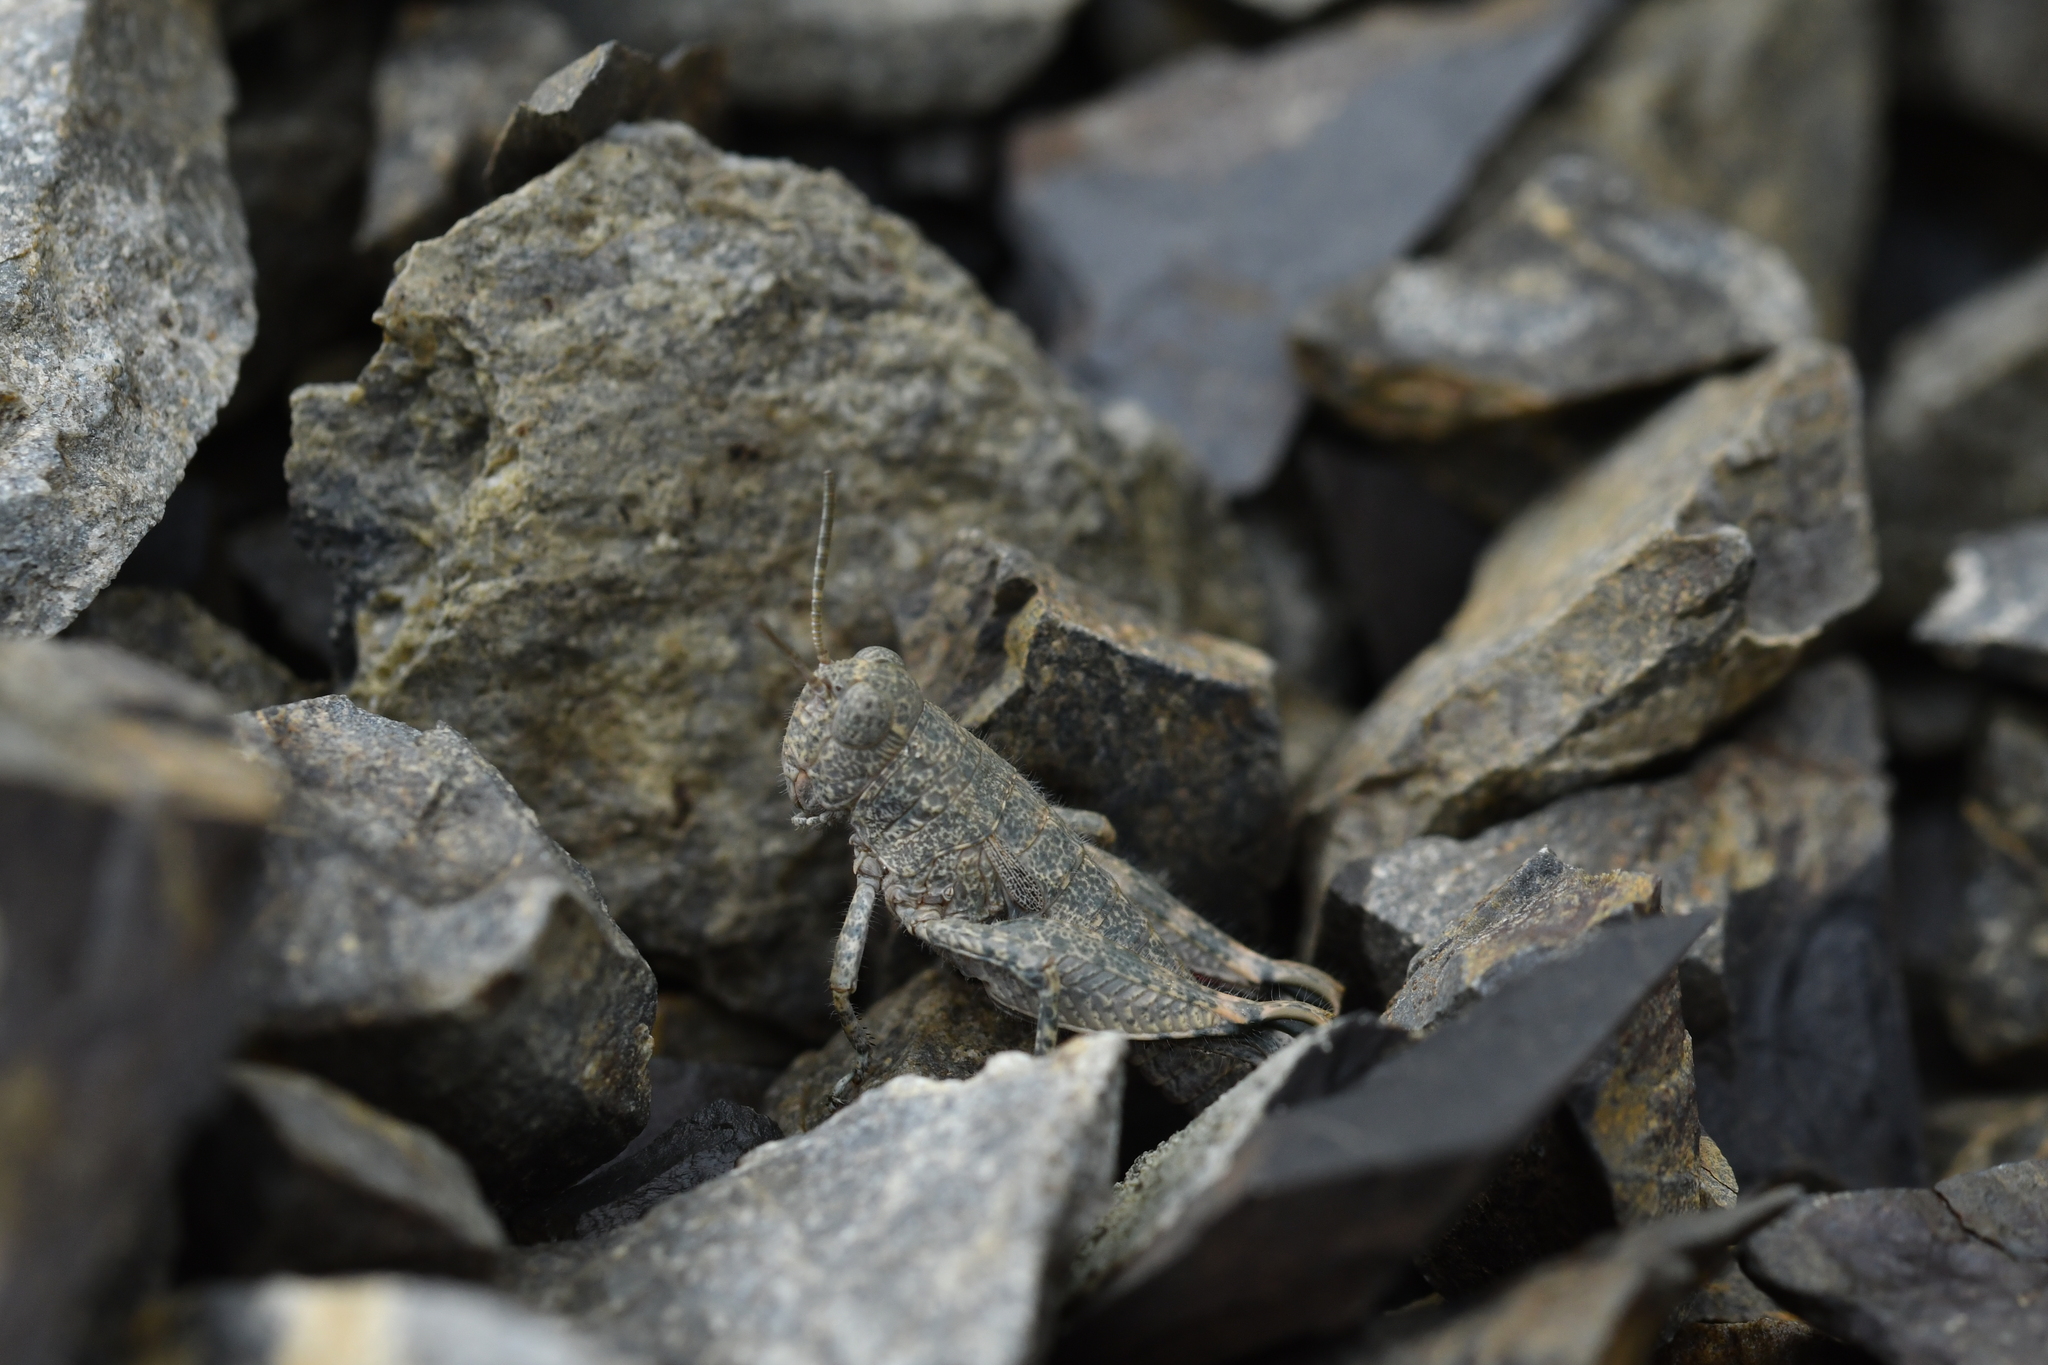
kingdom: Animalia
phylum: Arthropoda
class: Insecta
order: Orthoptera
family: Acrididae
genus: Sigaus
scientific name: Sigaus
